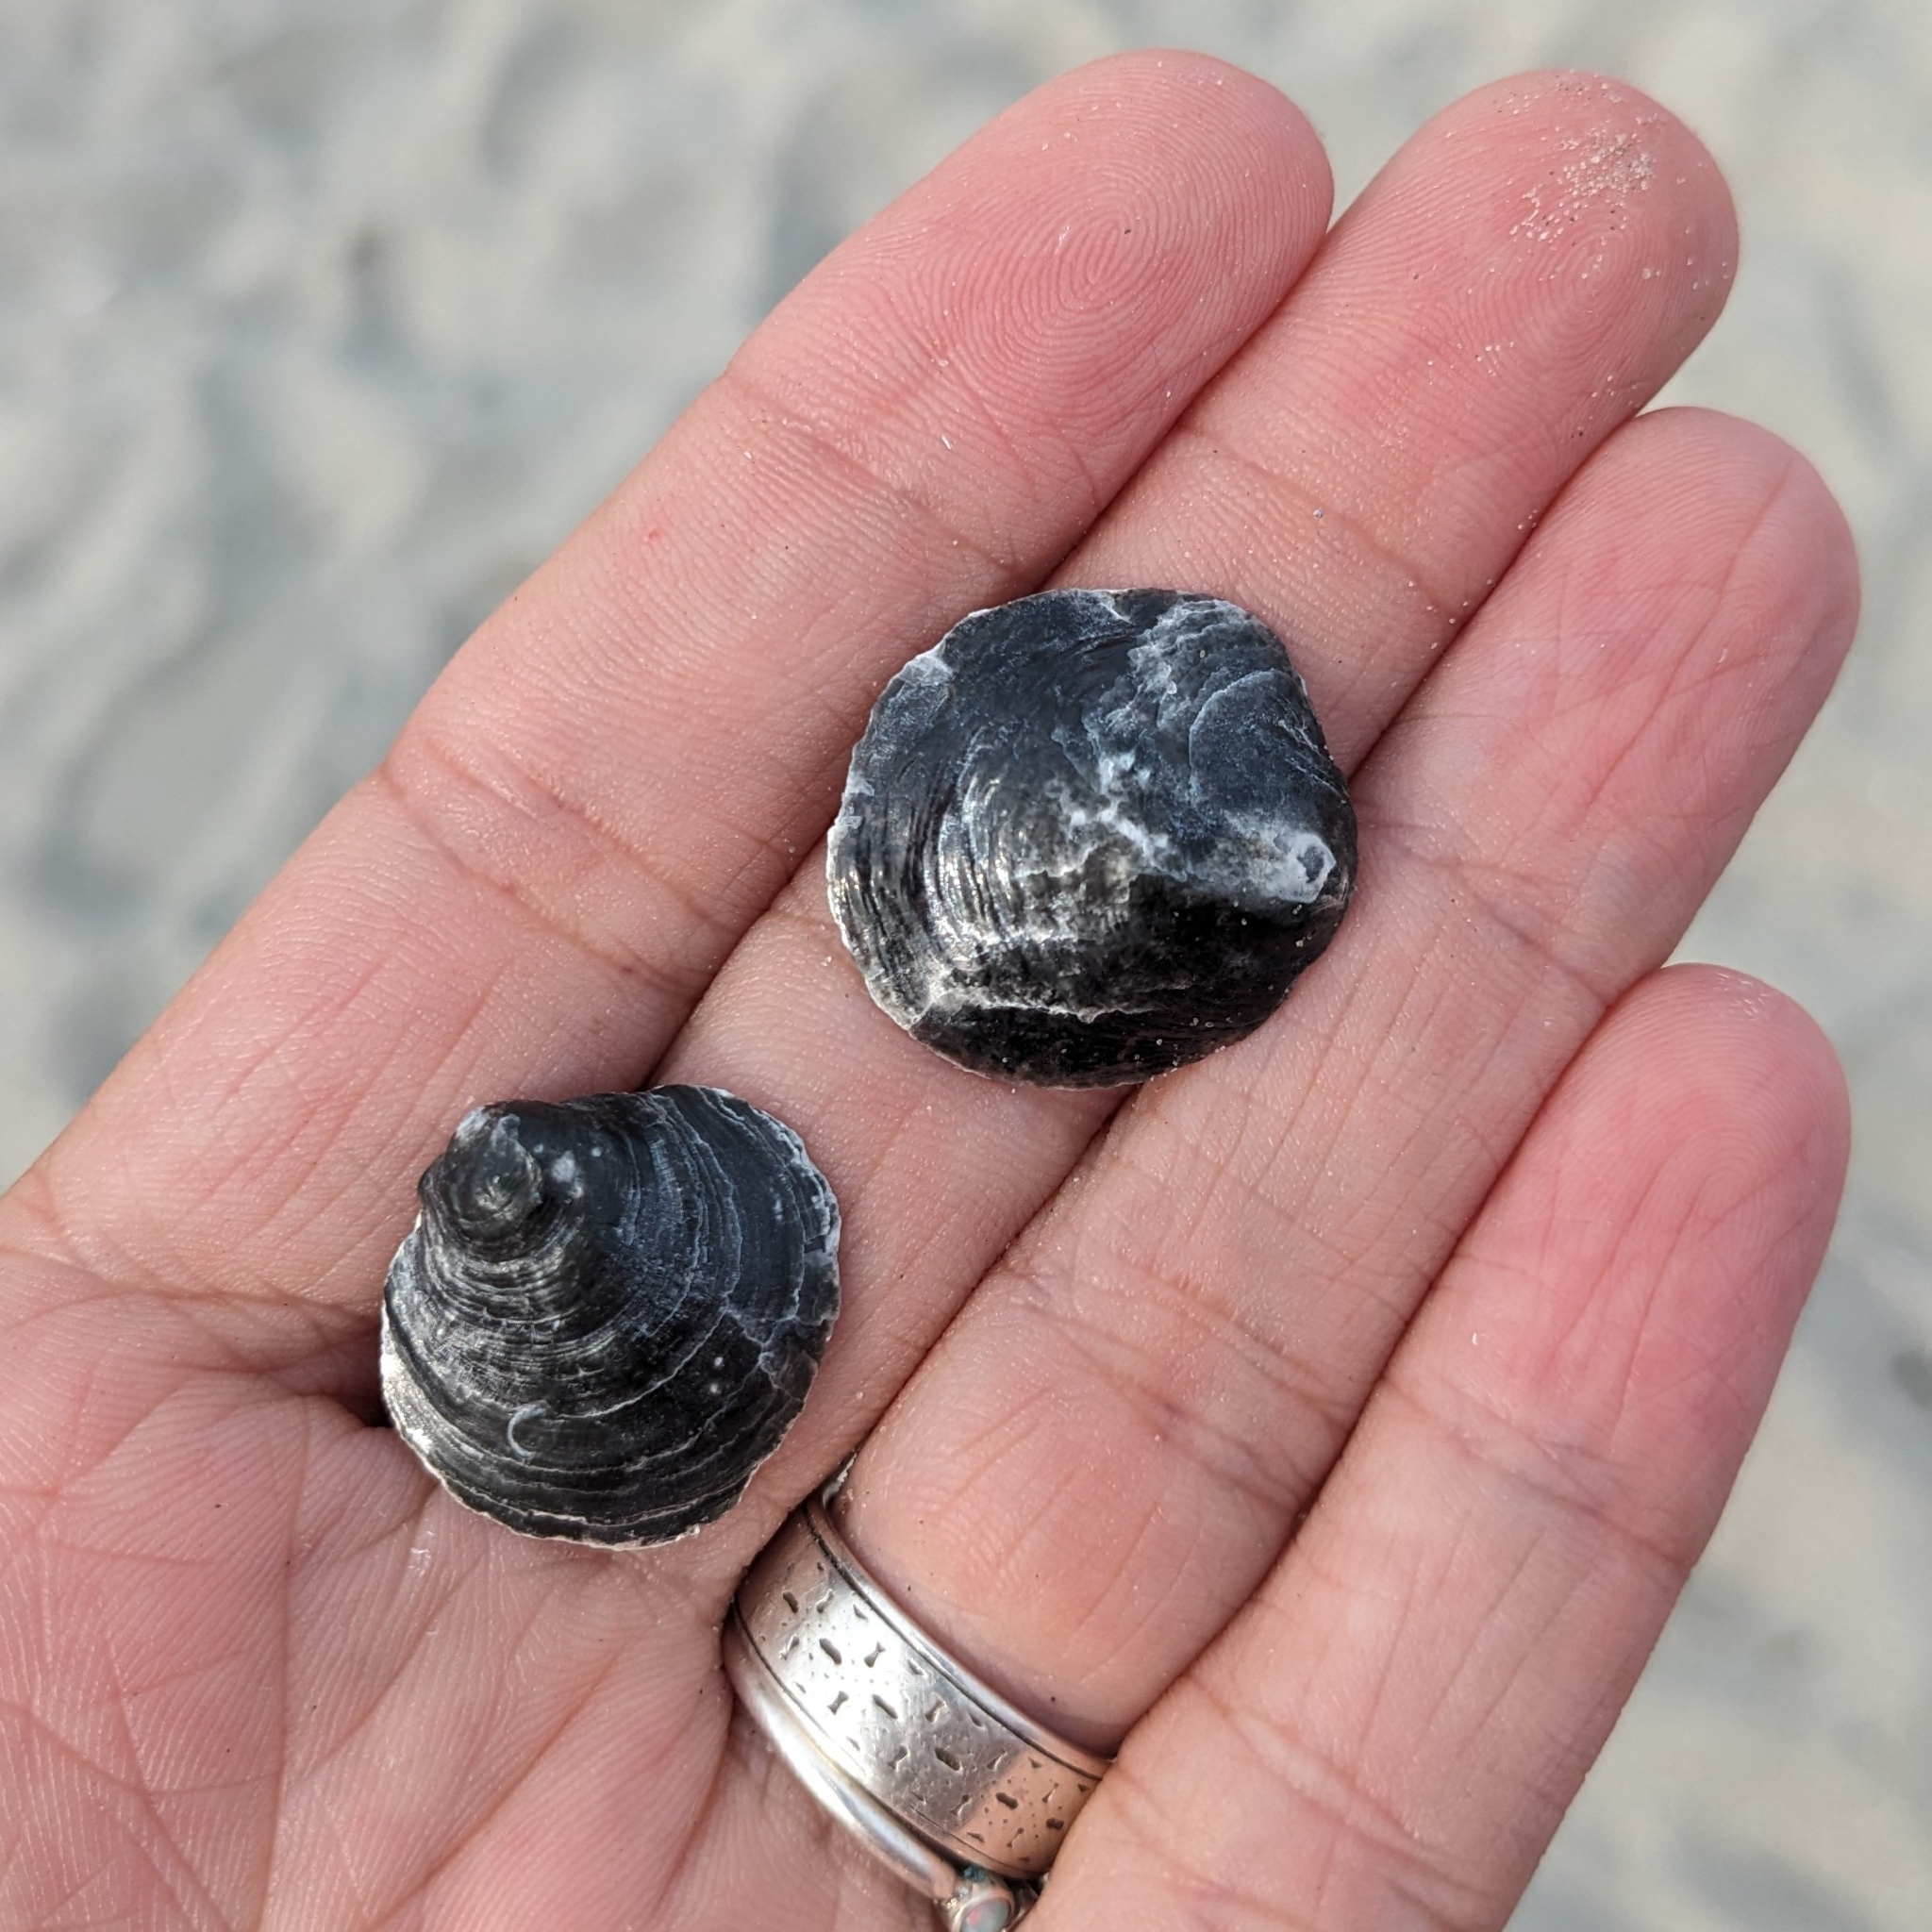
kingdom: Animalia
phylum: Mollusca
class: Bivalvia
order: Pectinida
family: Anomiidae
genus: Anomia
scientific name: Anomia simplex
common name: Common jingle shell
